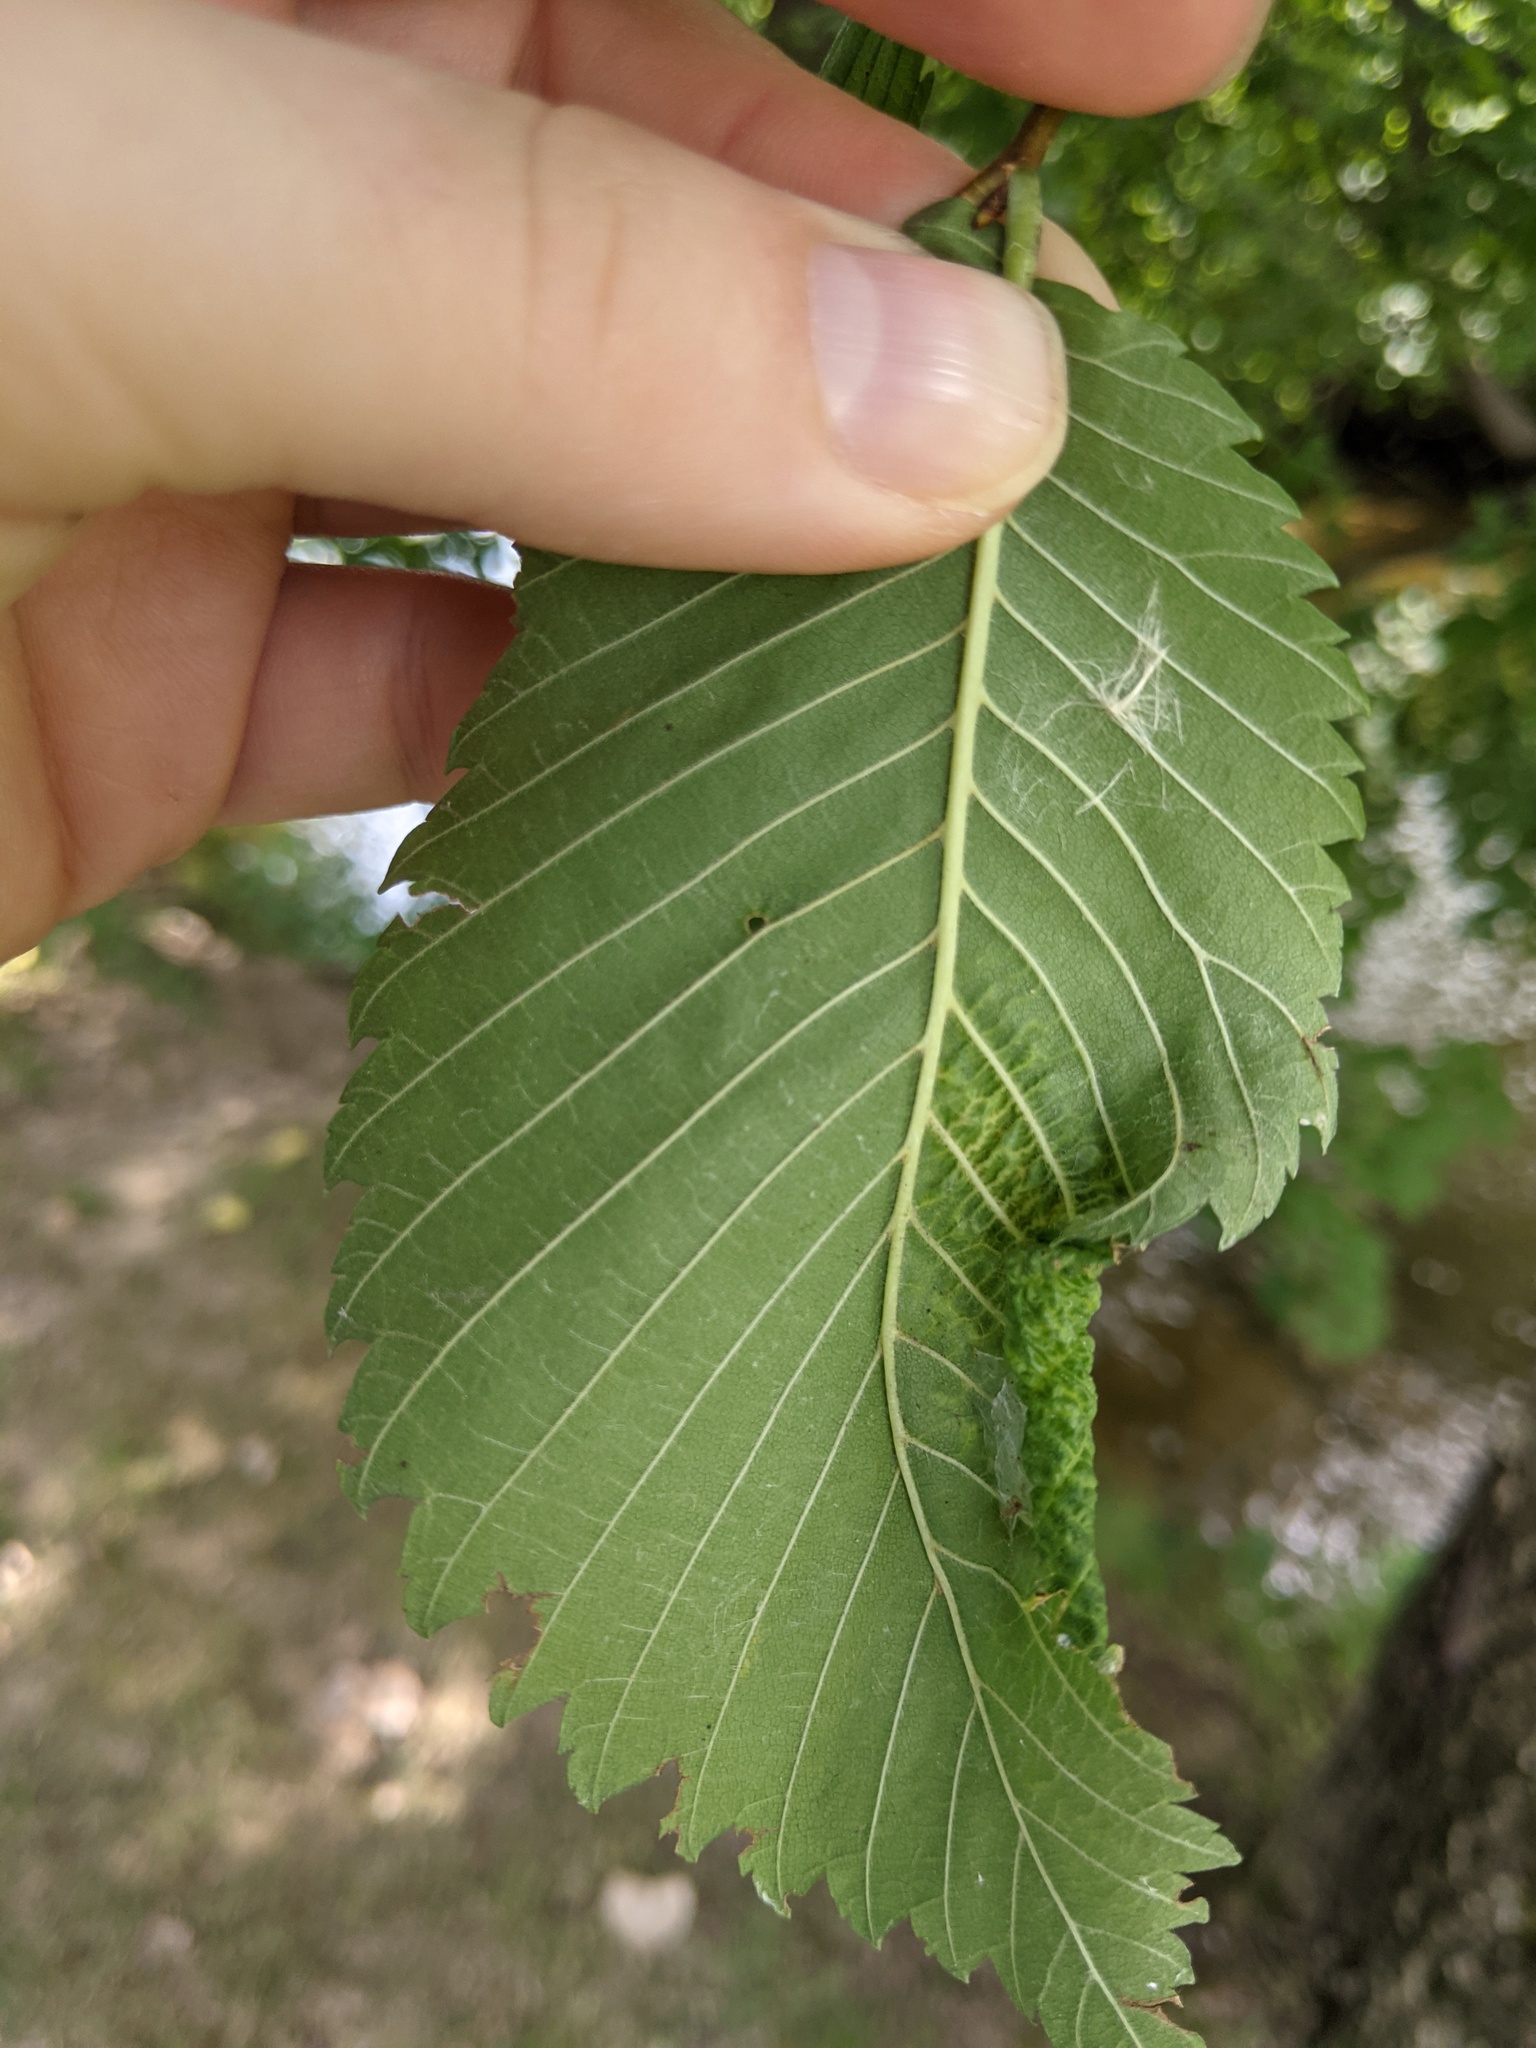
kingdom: Animalia
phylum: Arthropoda
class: Insecta
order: Hemiptera
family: Aphididae
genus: Eriosoma
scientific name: Eriosoma americanum
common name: Woolly elm aphid
